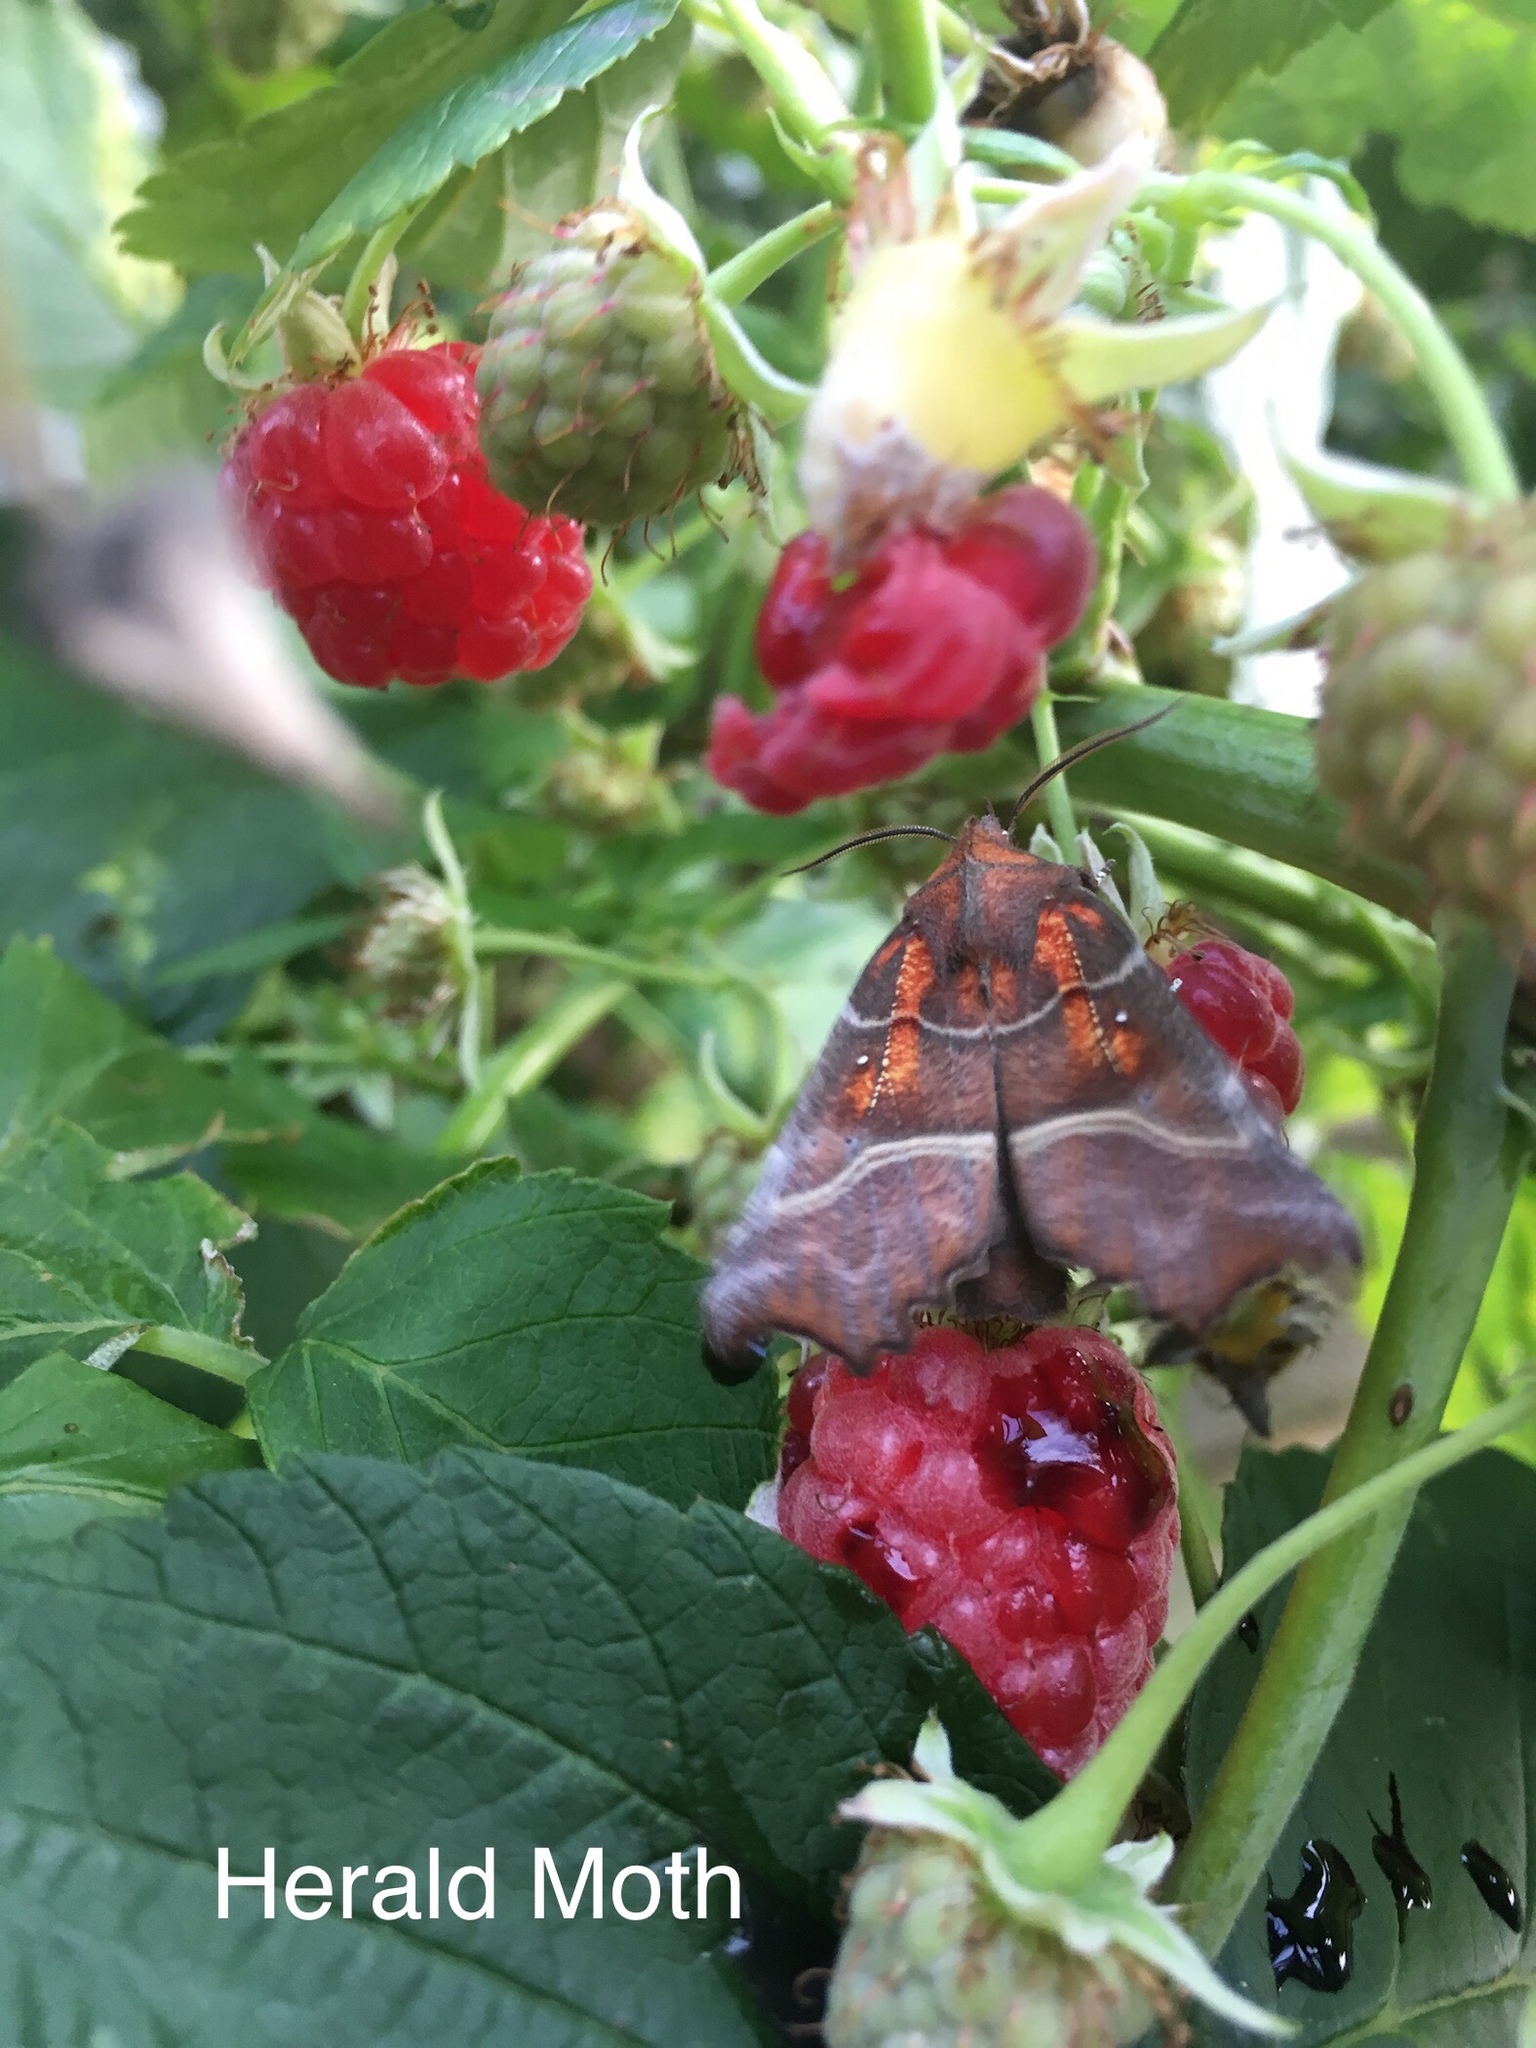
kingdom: Animalia
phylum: Arthropoda
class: Insecta
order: Lepidoptera
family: Erebidae
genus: Scoliopteryx
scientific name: Scoliopteryx libatrix
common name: Herald
